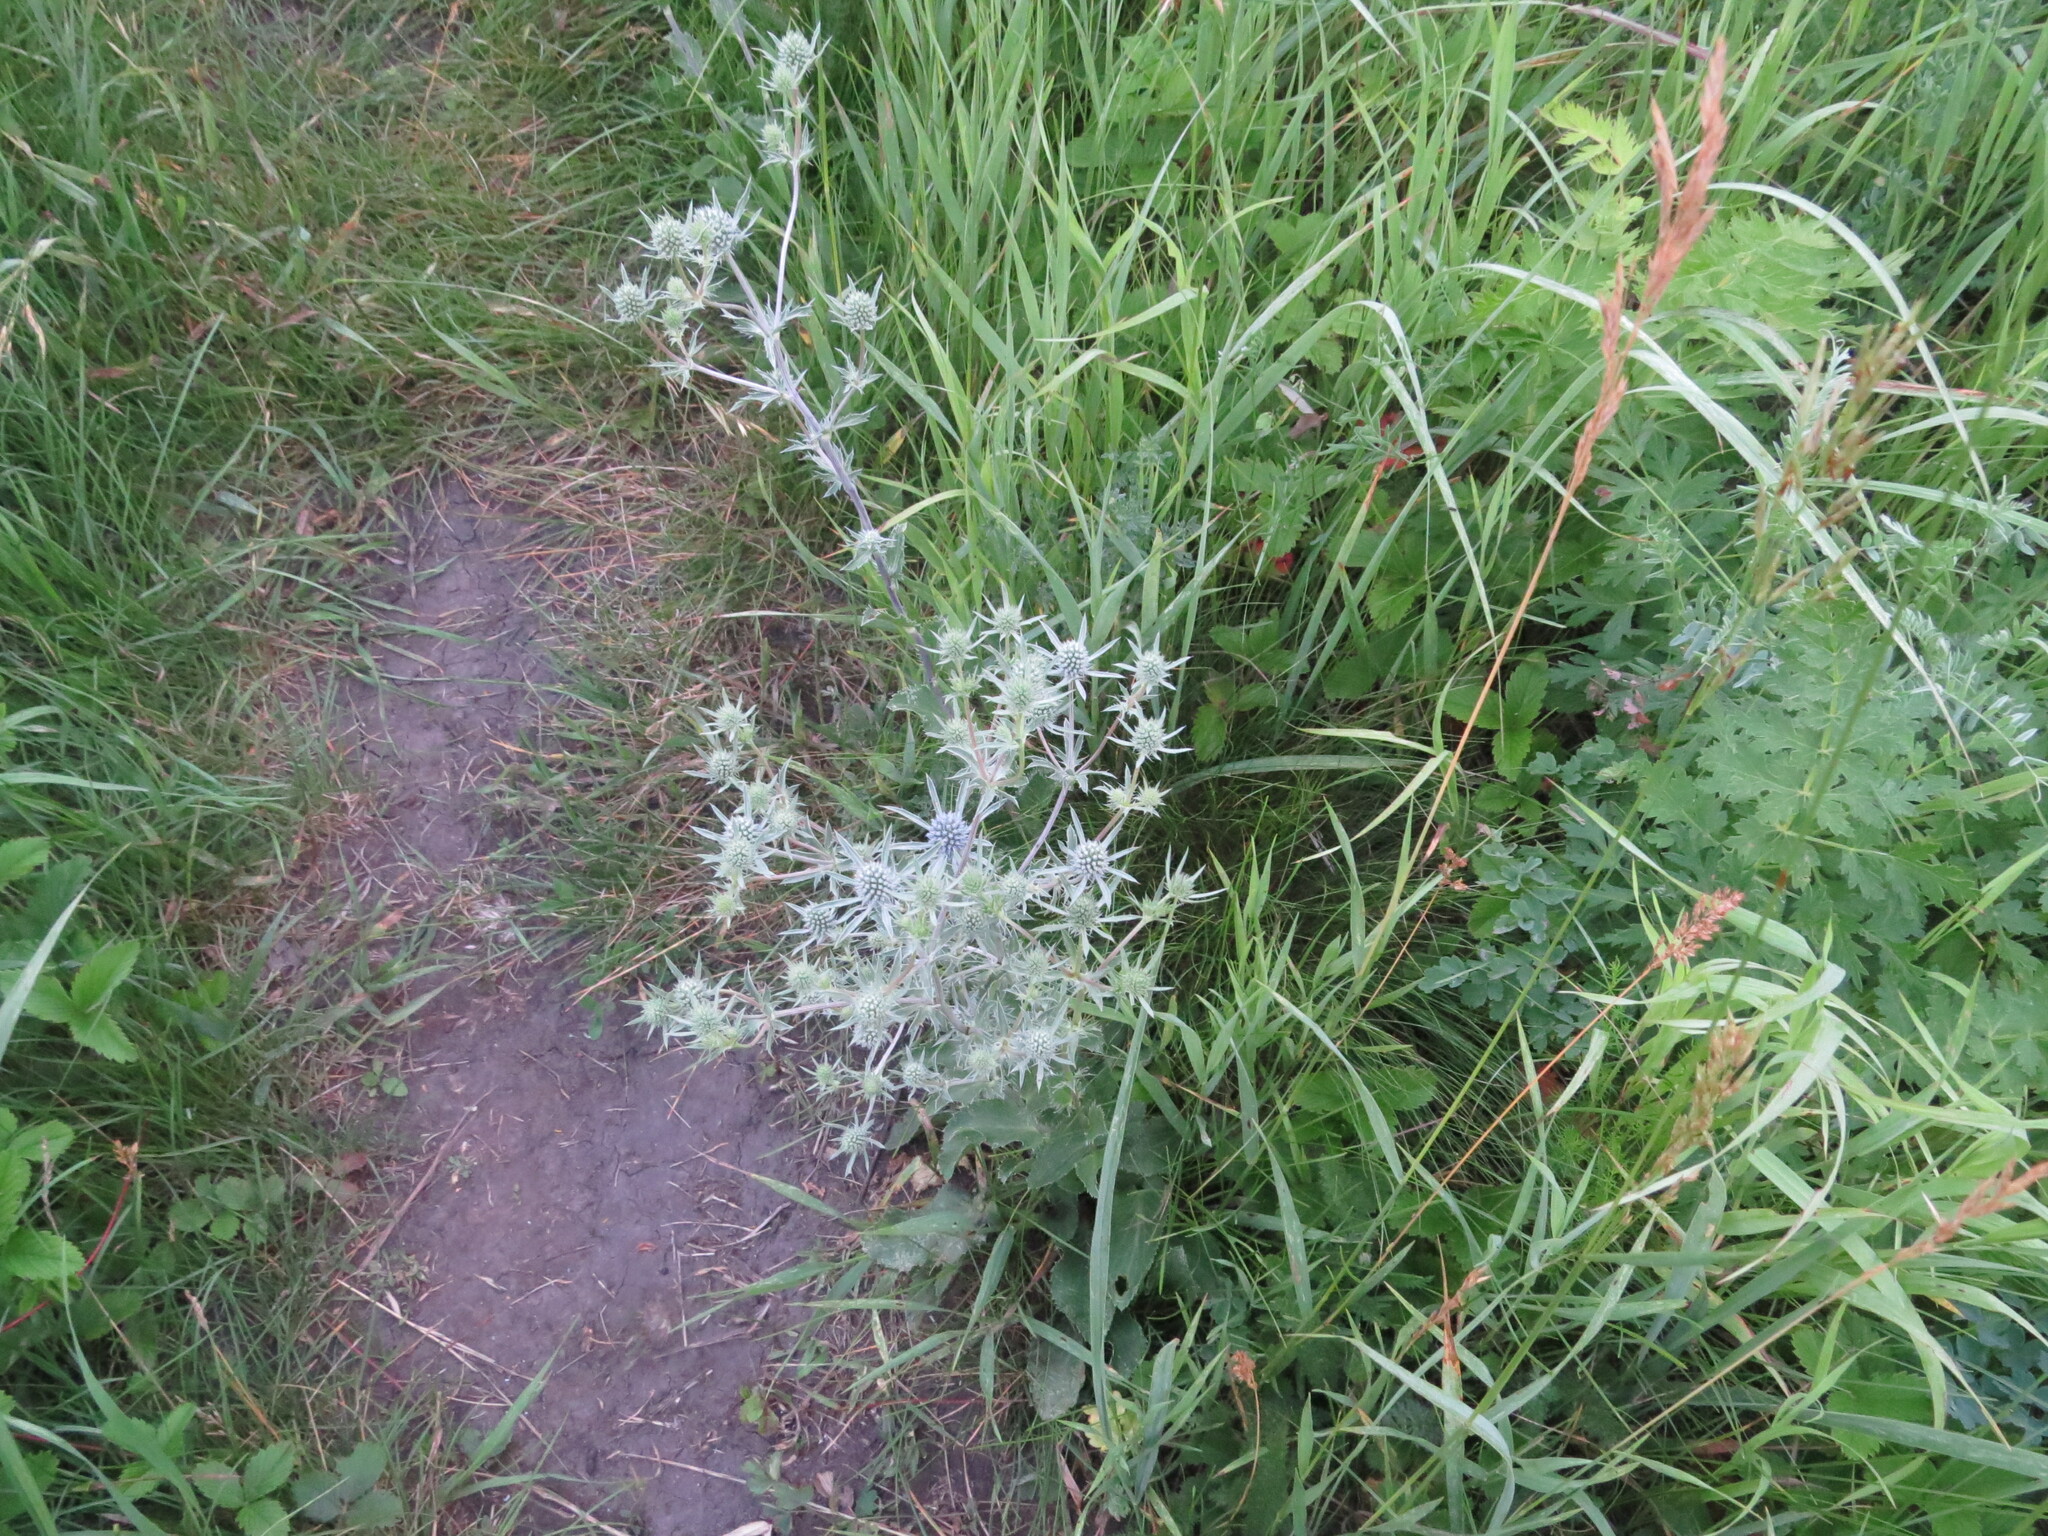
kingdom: Plantae
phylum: Tracheophyta
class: Magnoliopsida
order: Apiales
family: Apiaceae
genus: Eryngium
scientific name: Eryngium planum
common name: Blue eryngo
